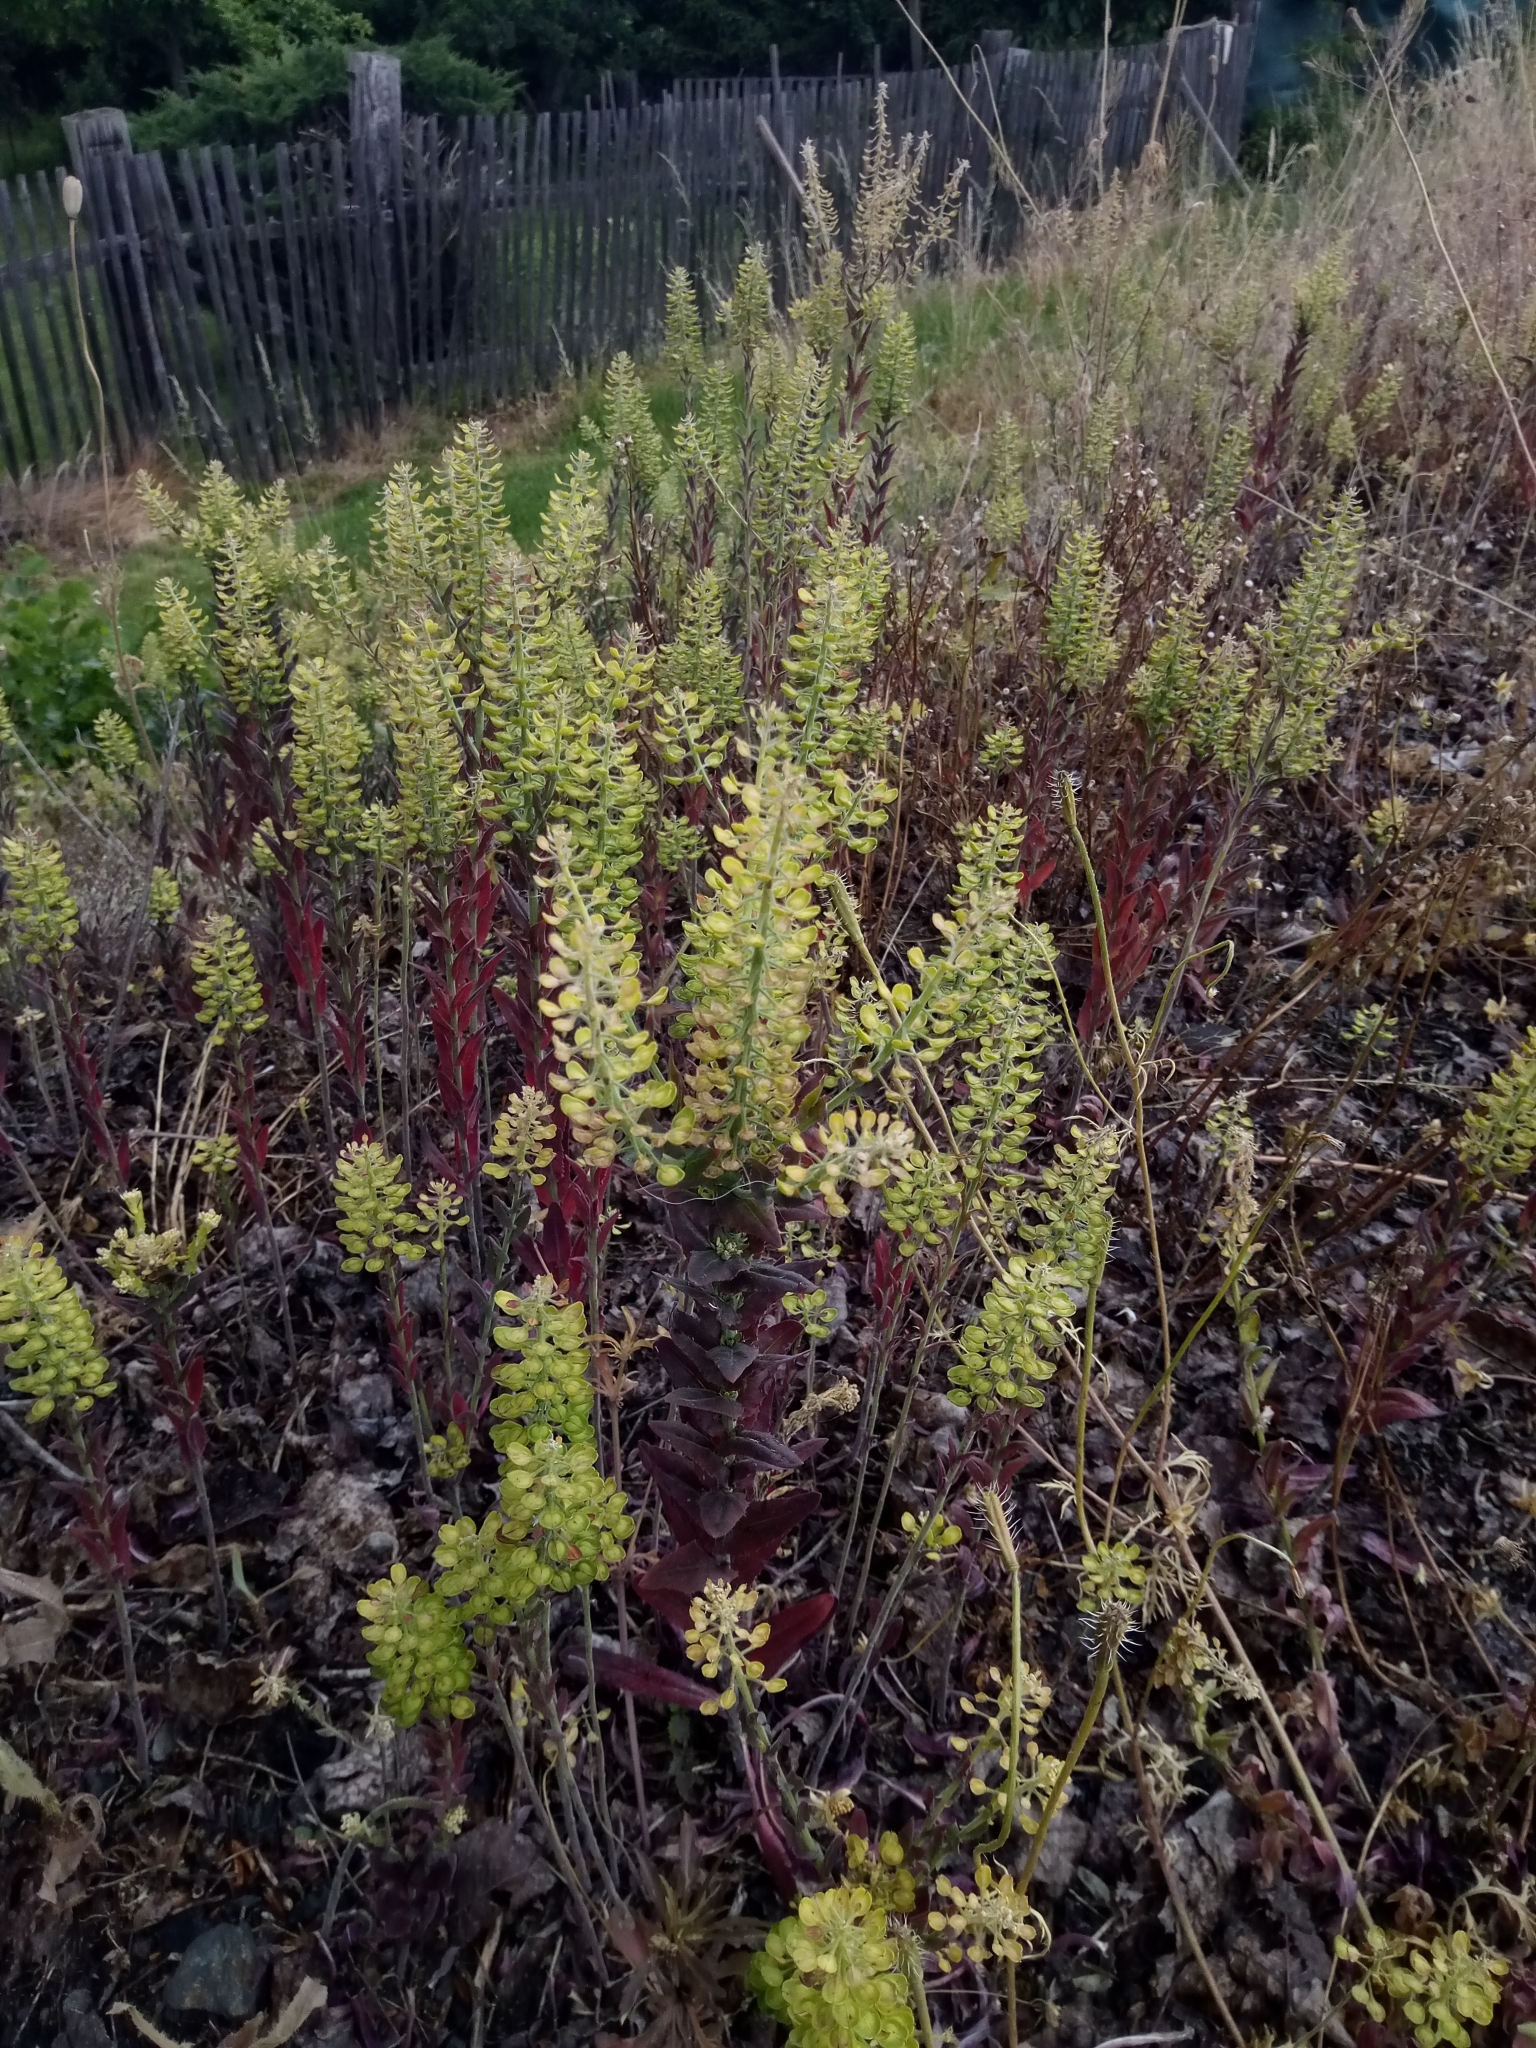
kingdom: Plantae
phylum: Tracheophyta
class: Magnoliopsida
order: Brassicales
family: Brassicaceae
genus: Lepidium
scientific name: Lepidium campestre
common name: Field pepperwort
